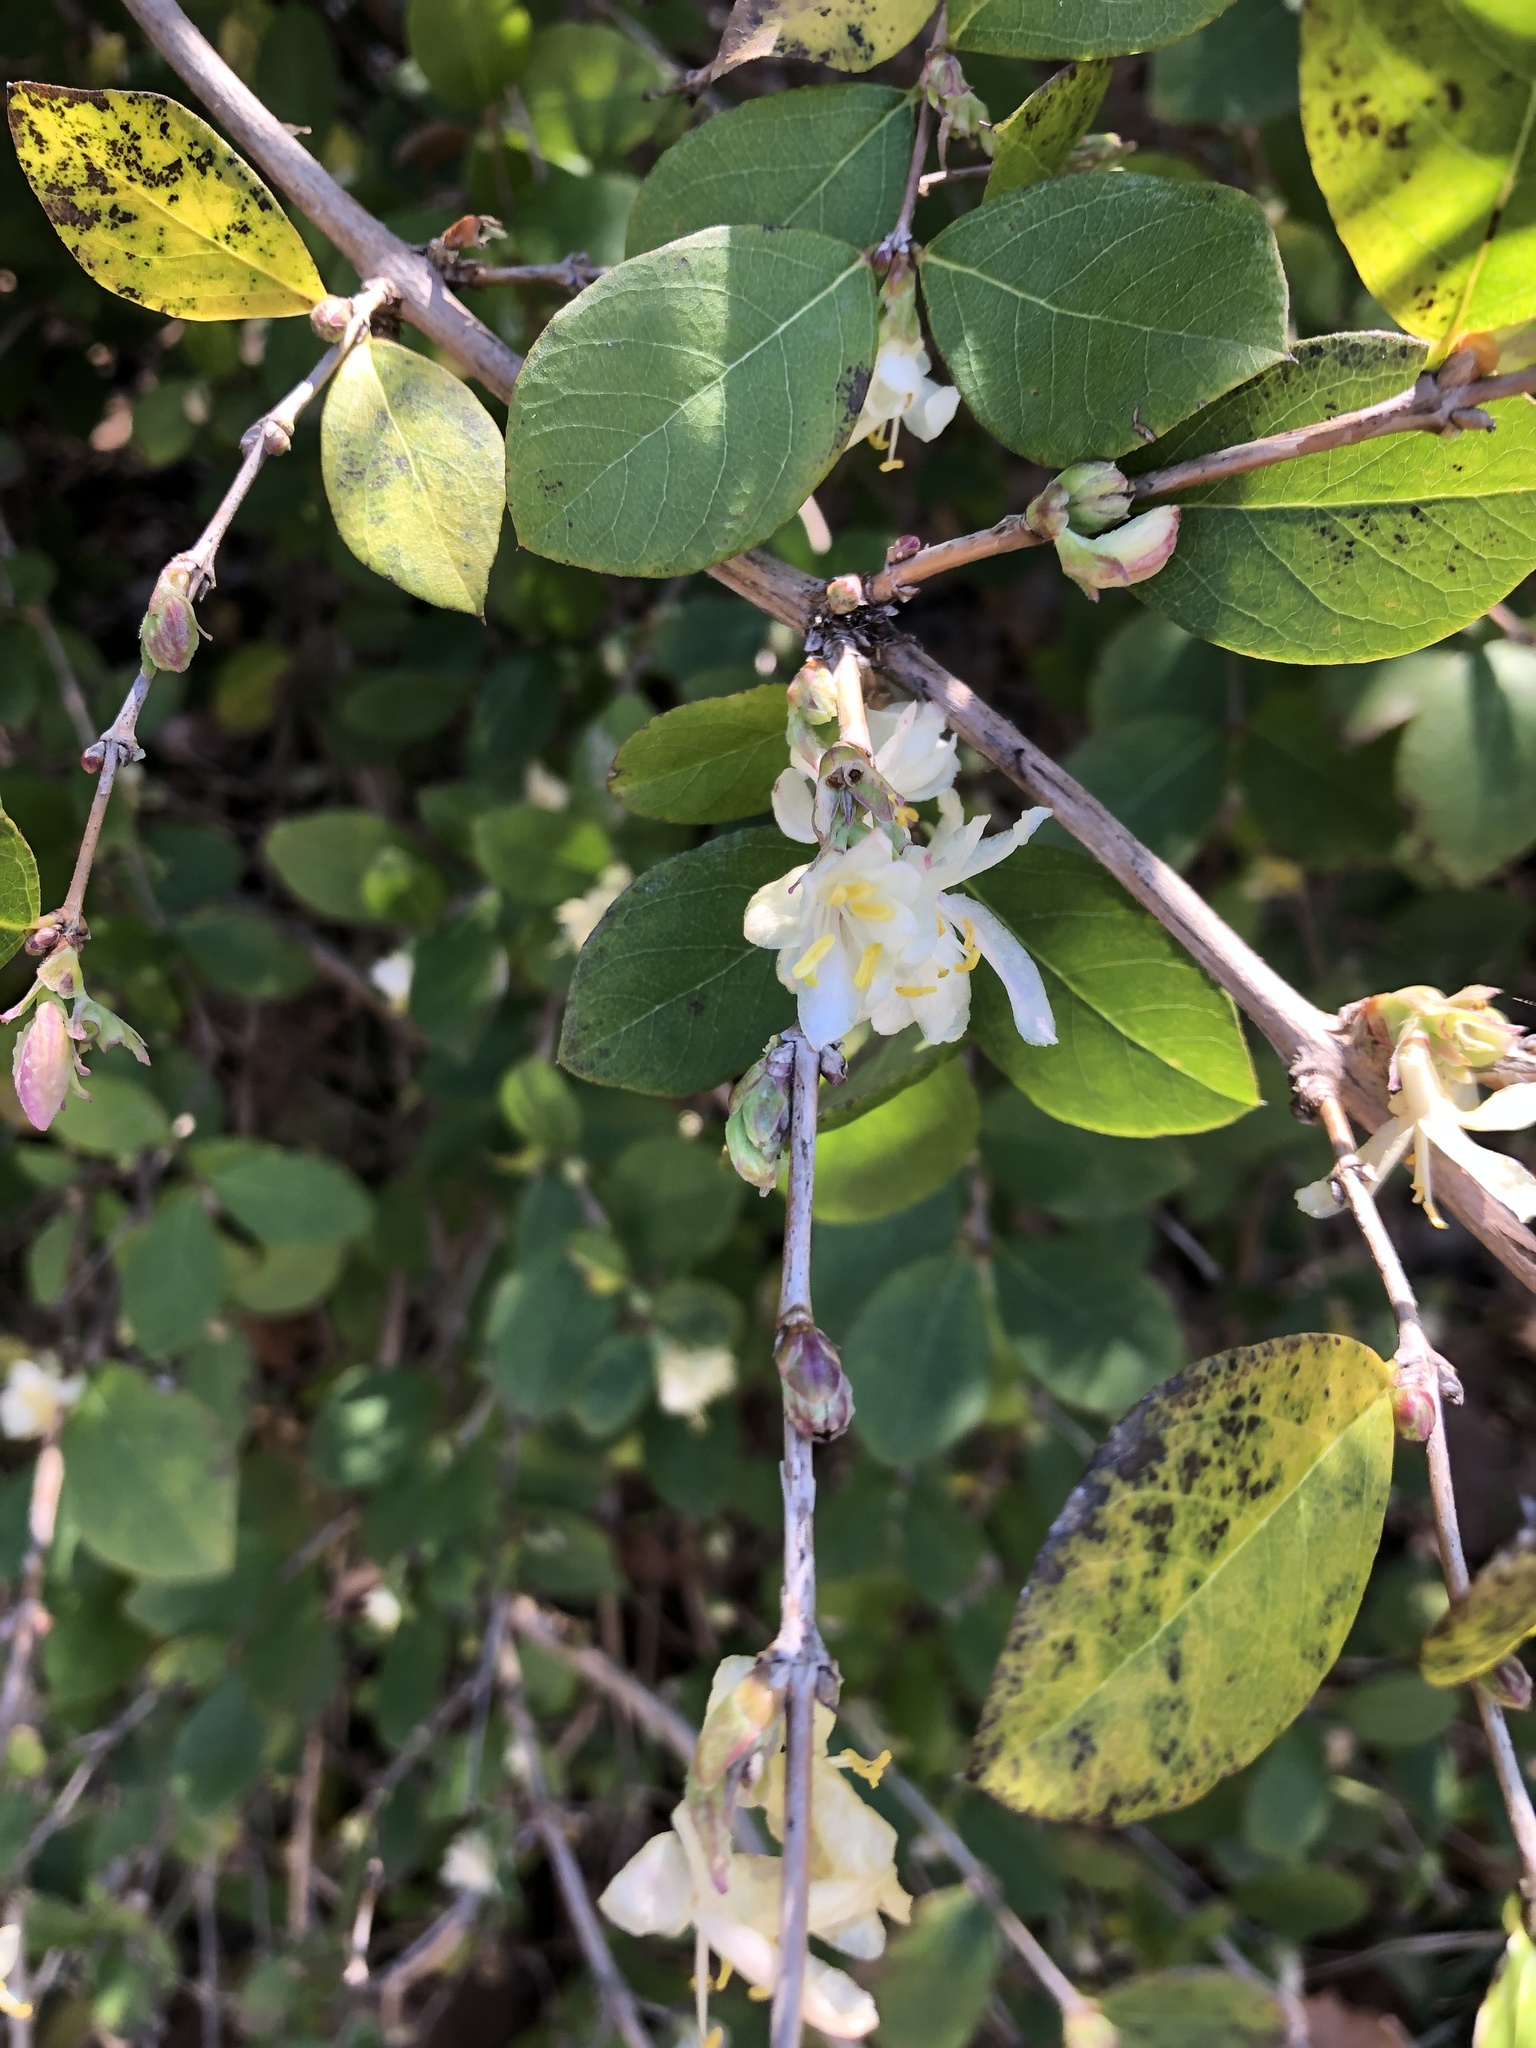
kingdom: Plantae
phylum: Tracheophyta
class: Magnoliopsida
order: Dipsacales
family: Caprifoliaceae
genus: Lonicera
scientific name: Lonicera fragrantissima
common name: Fragrant honeysuckle
